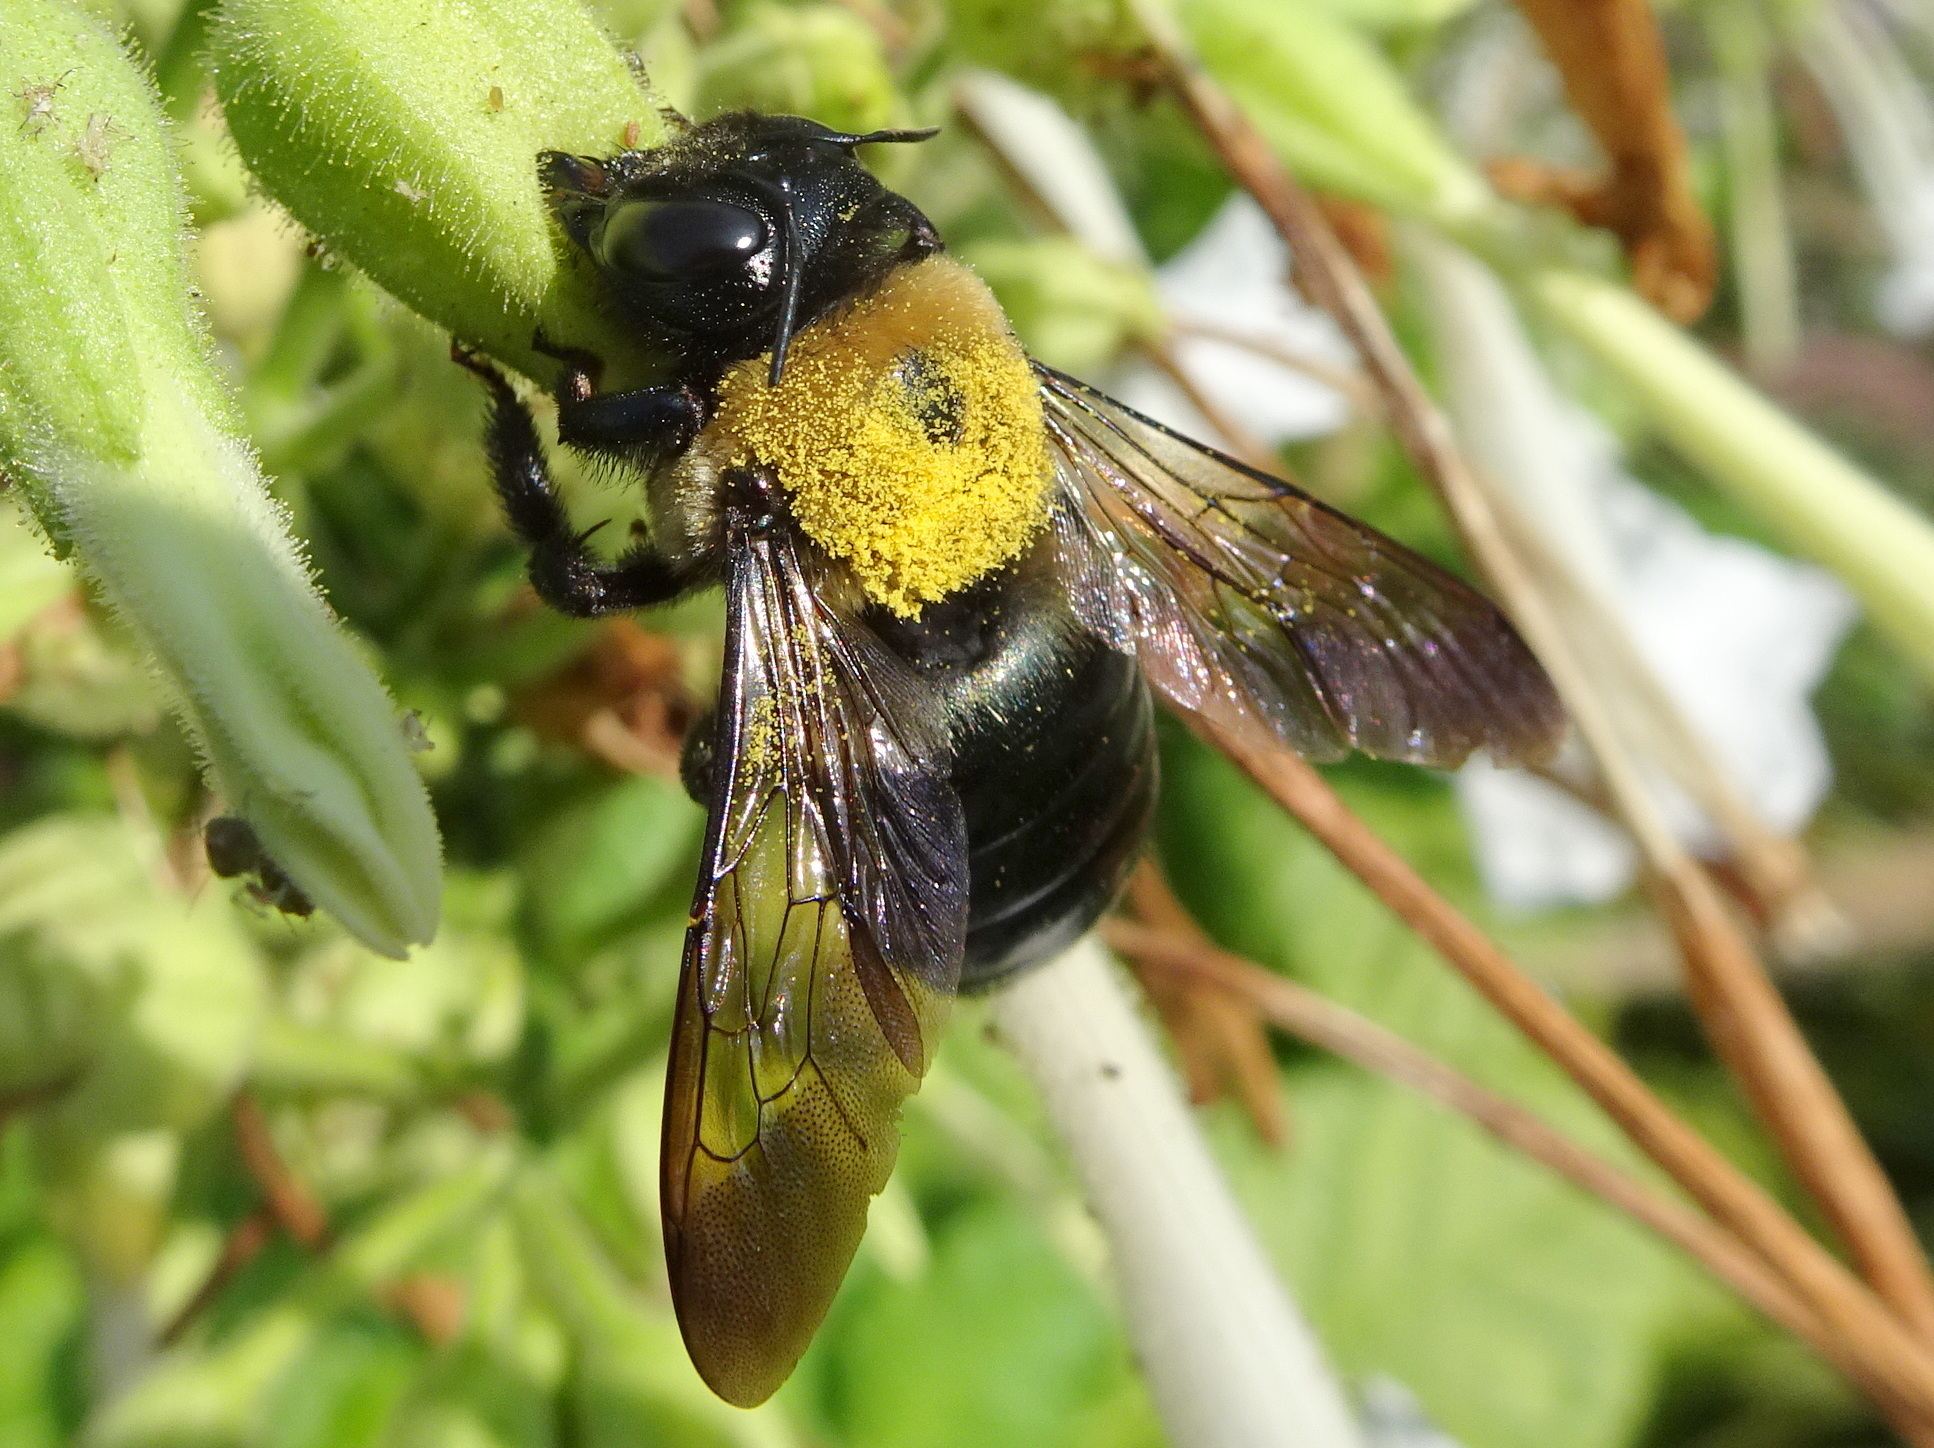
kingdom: Animalia
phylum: Arthropoda
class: Insecta
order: Hymenoptera
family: Apidae
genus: Xylocopa
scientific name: Xylocopa virginica
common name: Carpenter bee
